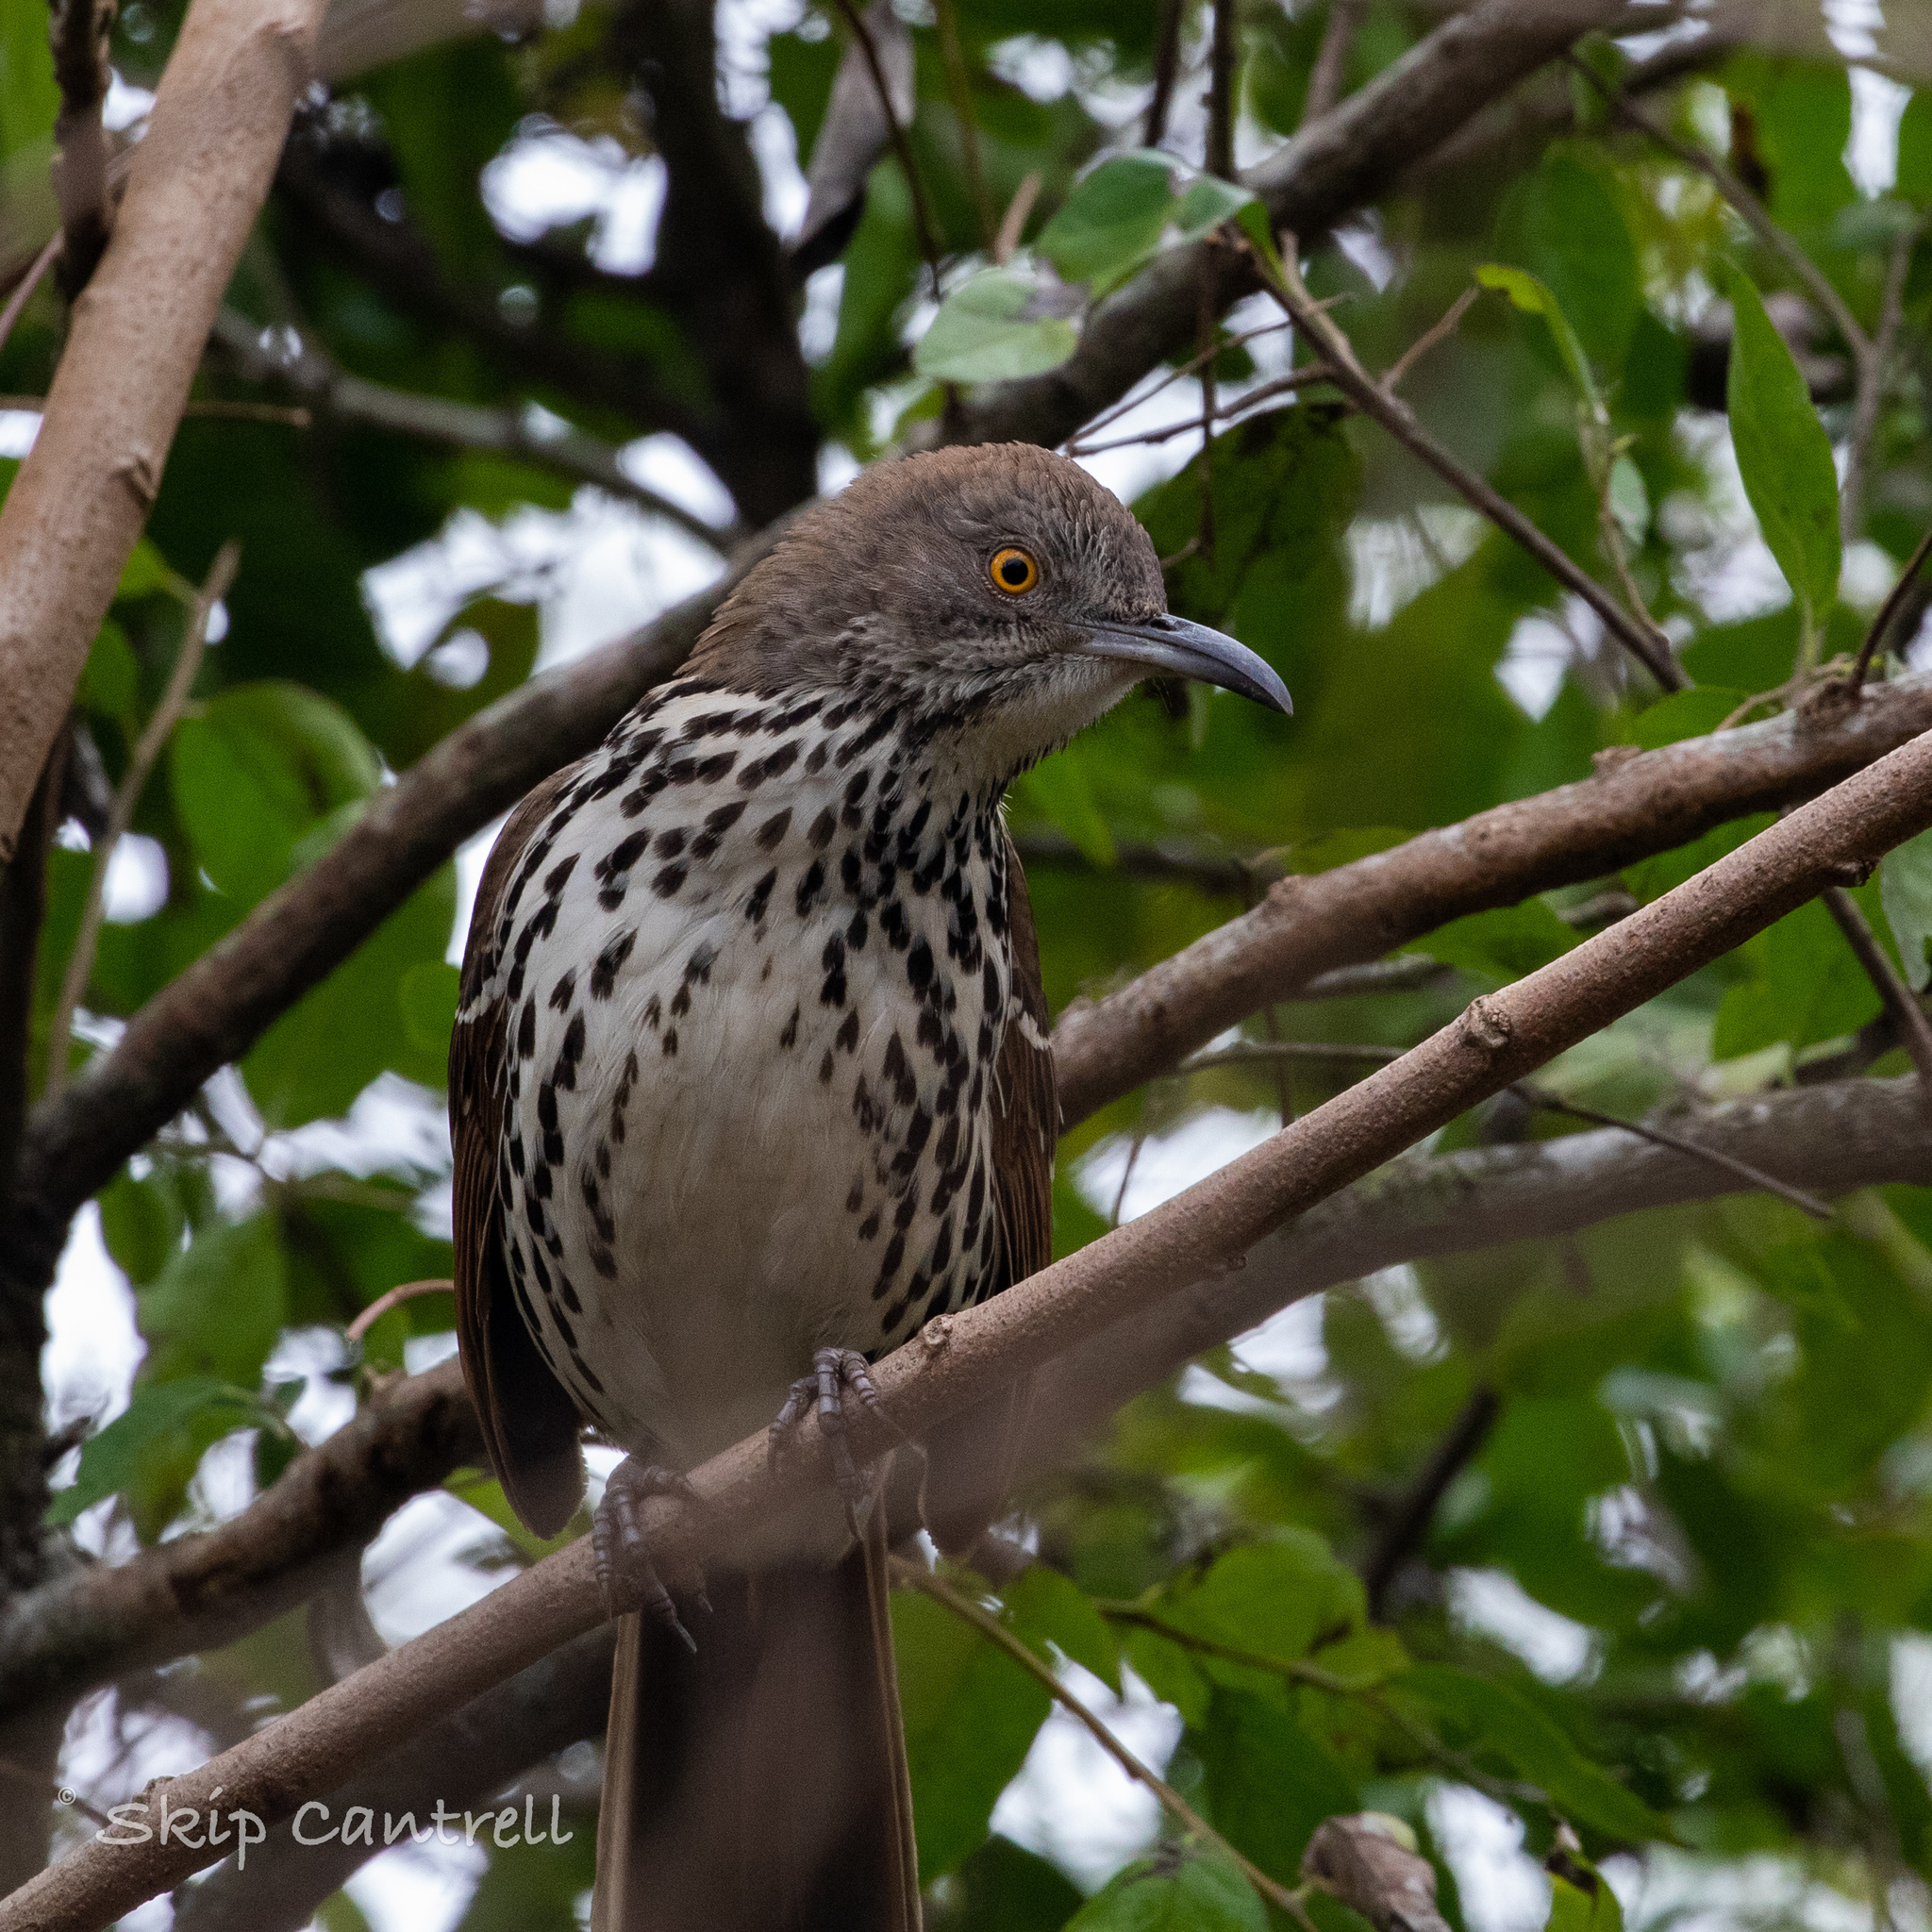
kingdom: Animalia
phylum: Chordata
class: Aves
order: Passeriformes
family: Mimidae
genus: Toxostoma
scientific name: Toxostoma longirostre
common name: Long-billed thrasher
